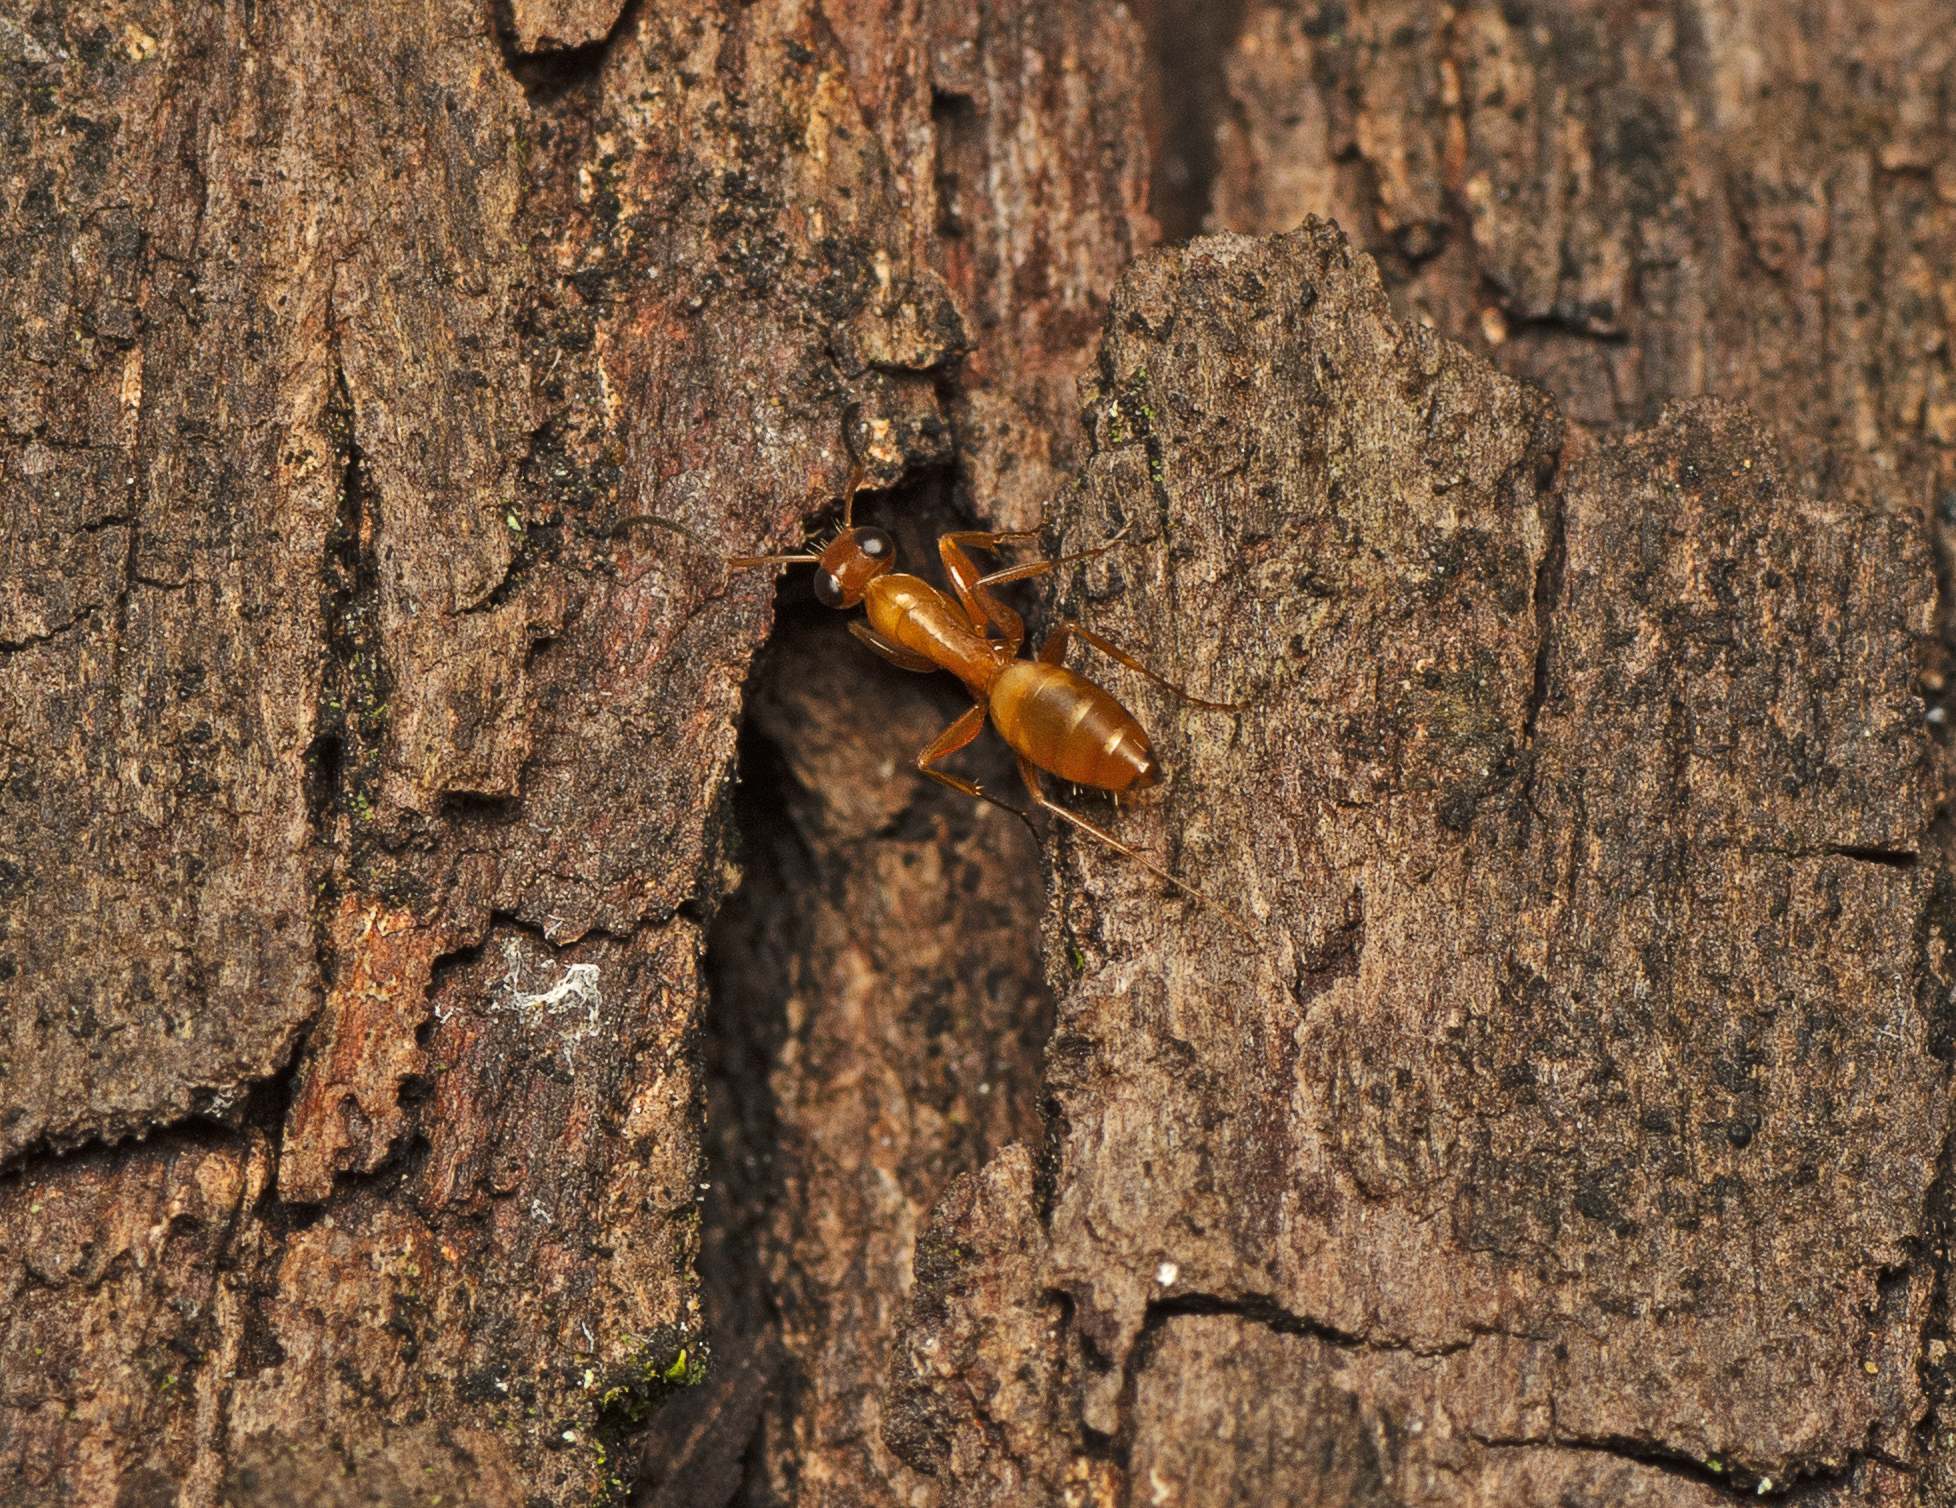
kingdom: Animalia
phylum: Arthropoda
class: Insecta
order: Hymenoptera
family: Formicidae
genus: Opisthopsis
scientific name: Opisthopsis jocosus
